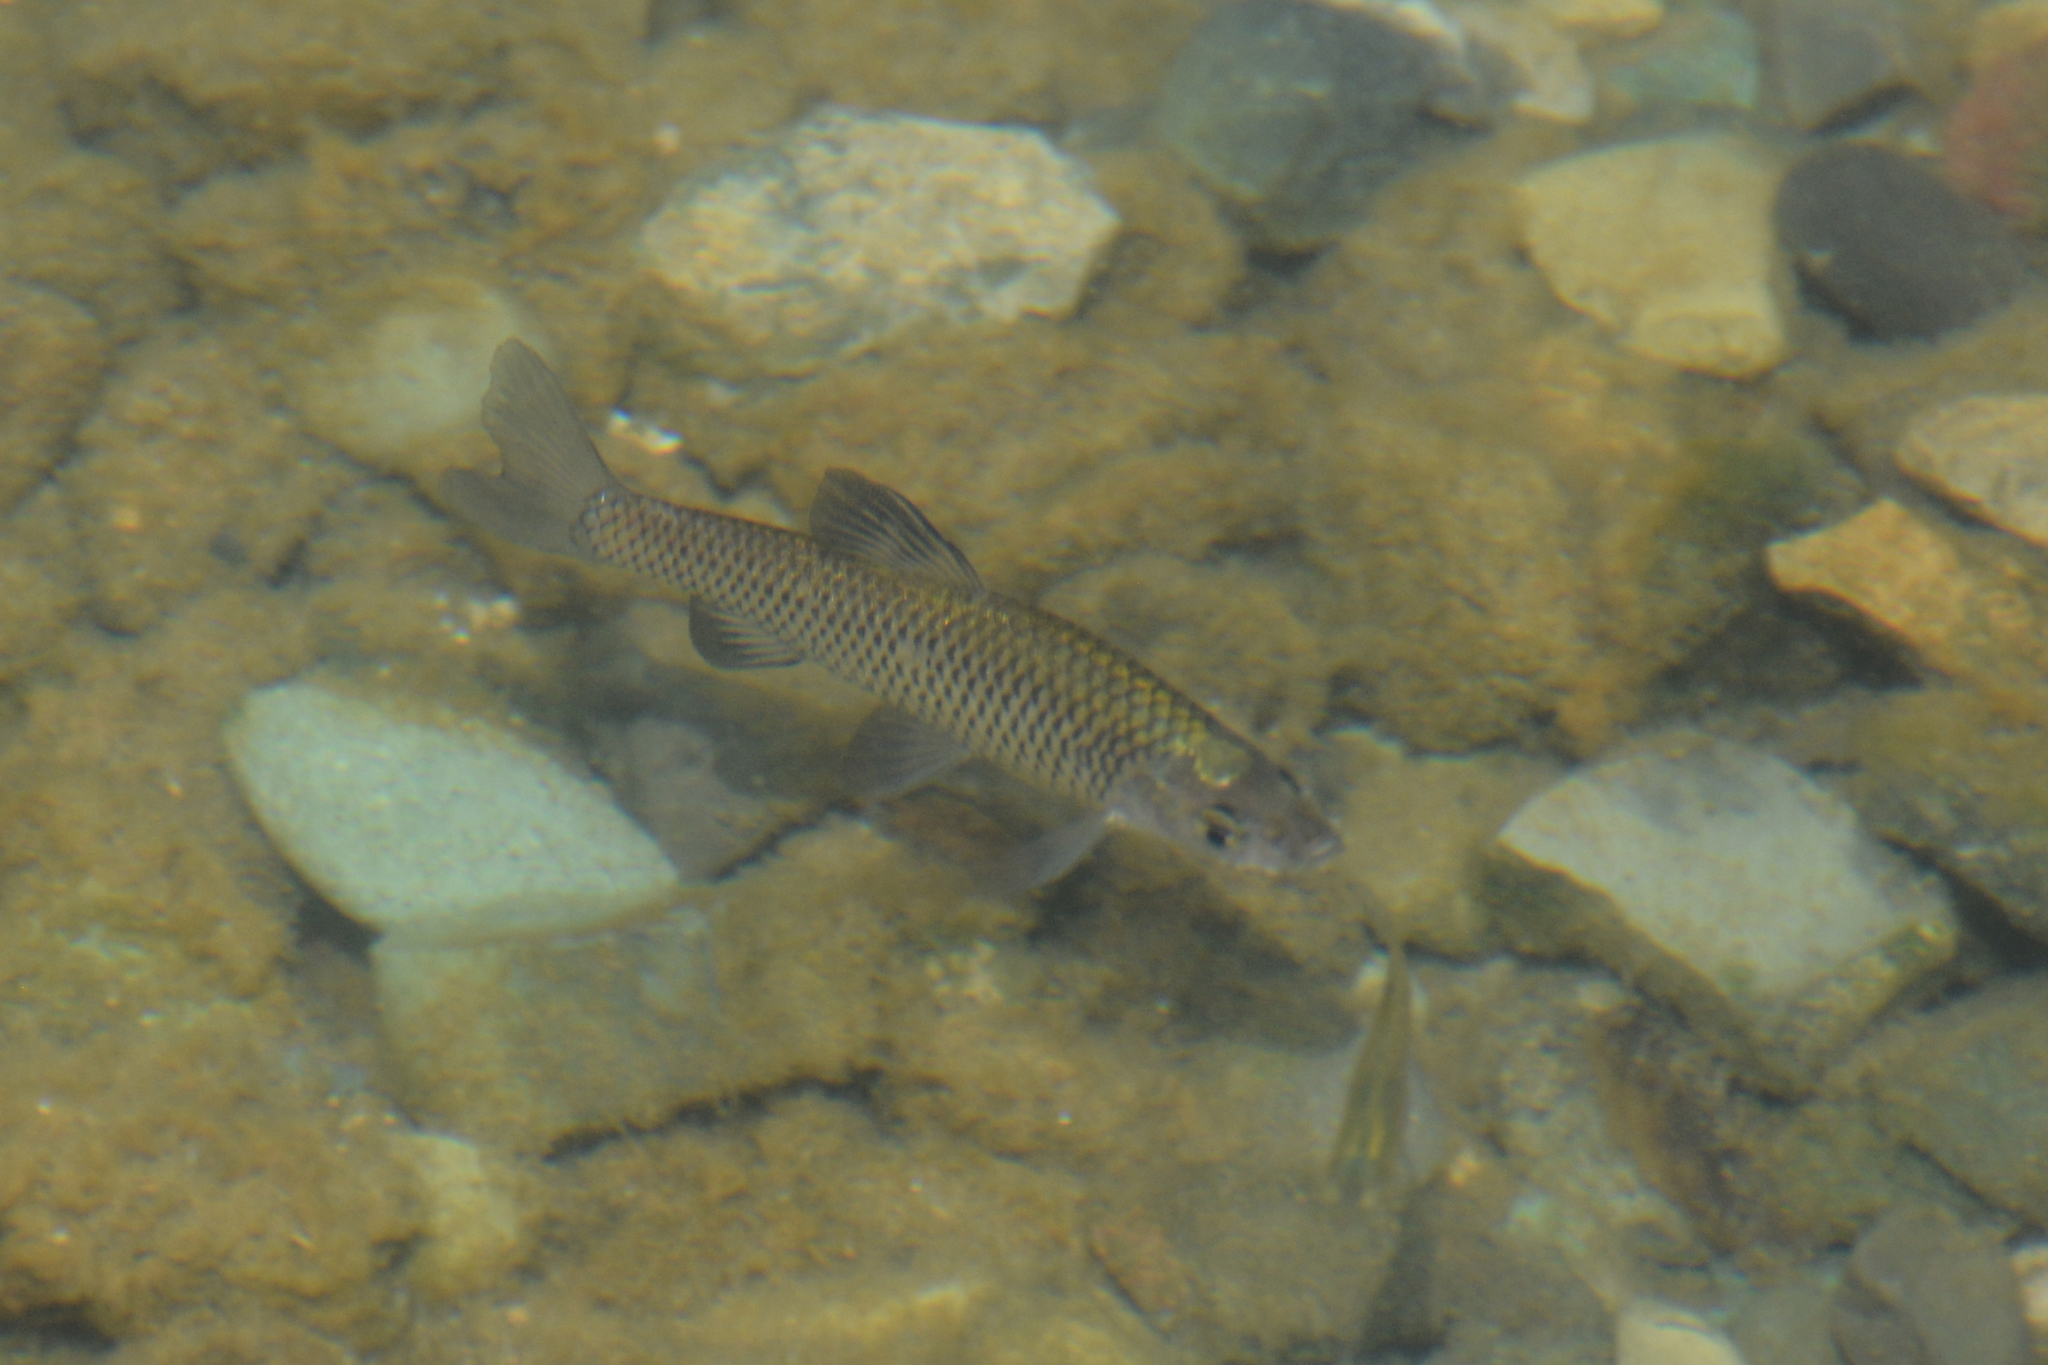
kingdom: Animalia
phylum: Chordata
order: Cypriniformes
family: Cyprinidae
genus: Pseudorasbora
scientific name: Pseudorasbora parva
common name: Topmouth gudgeon
